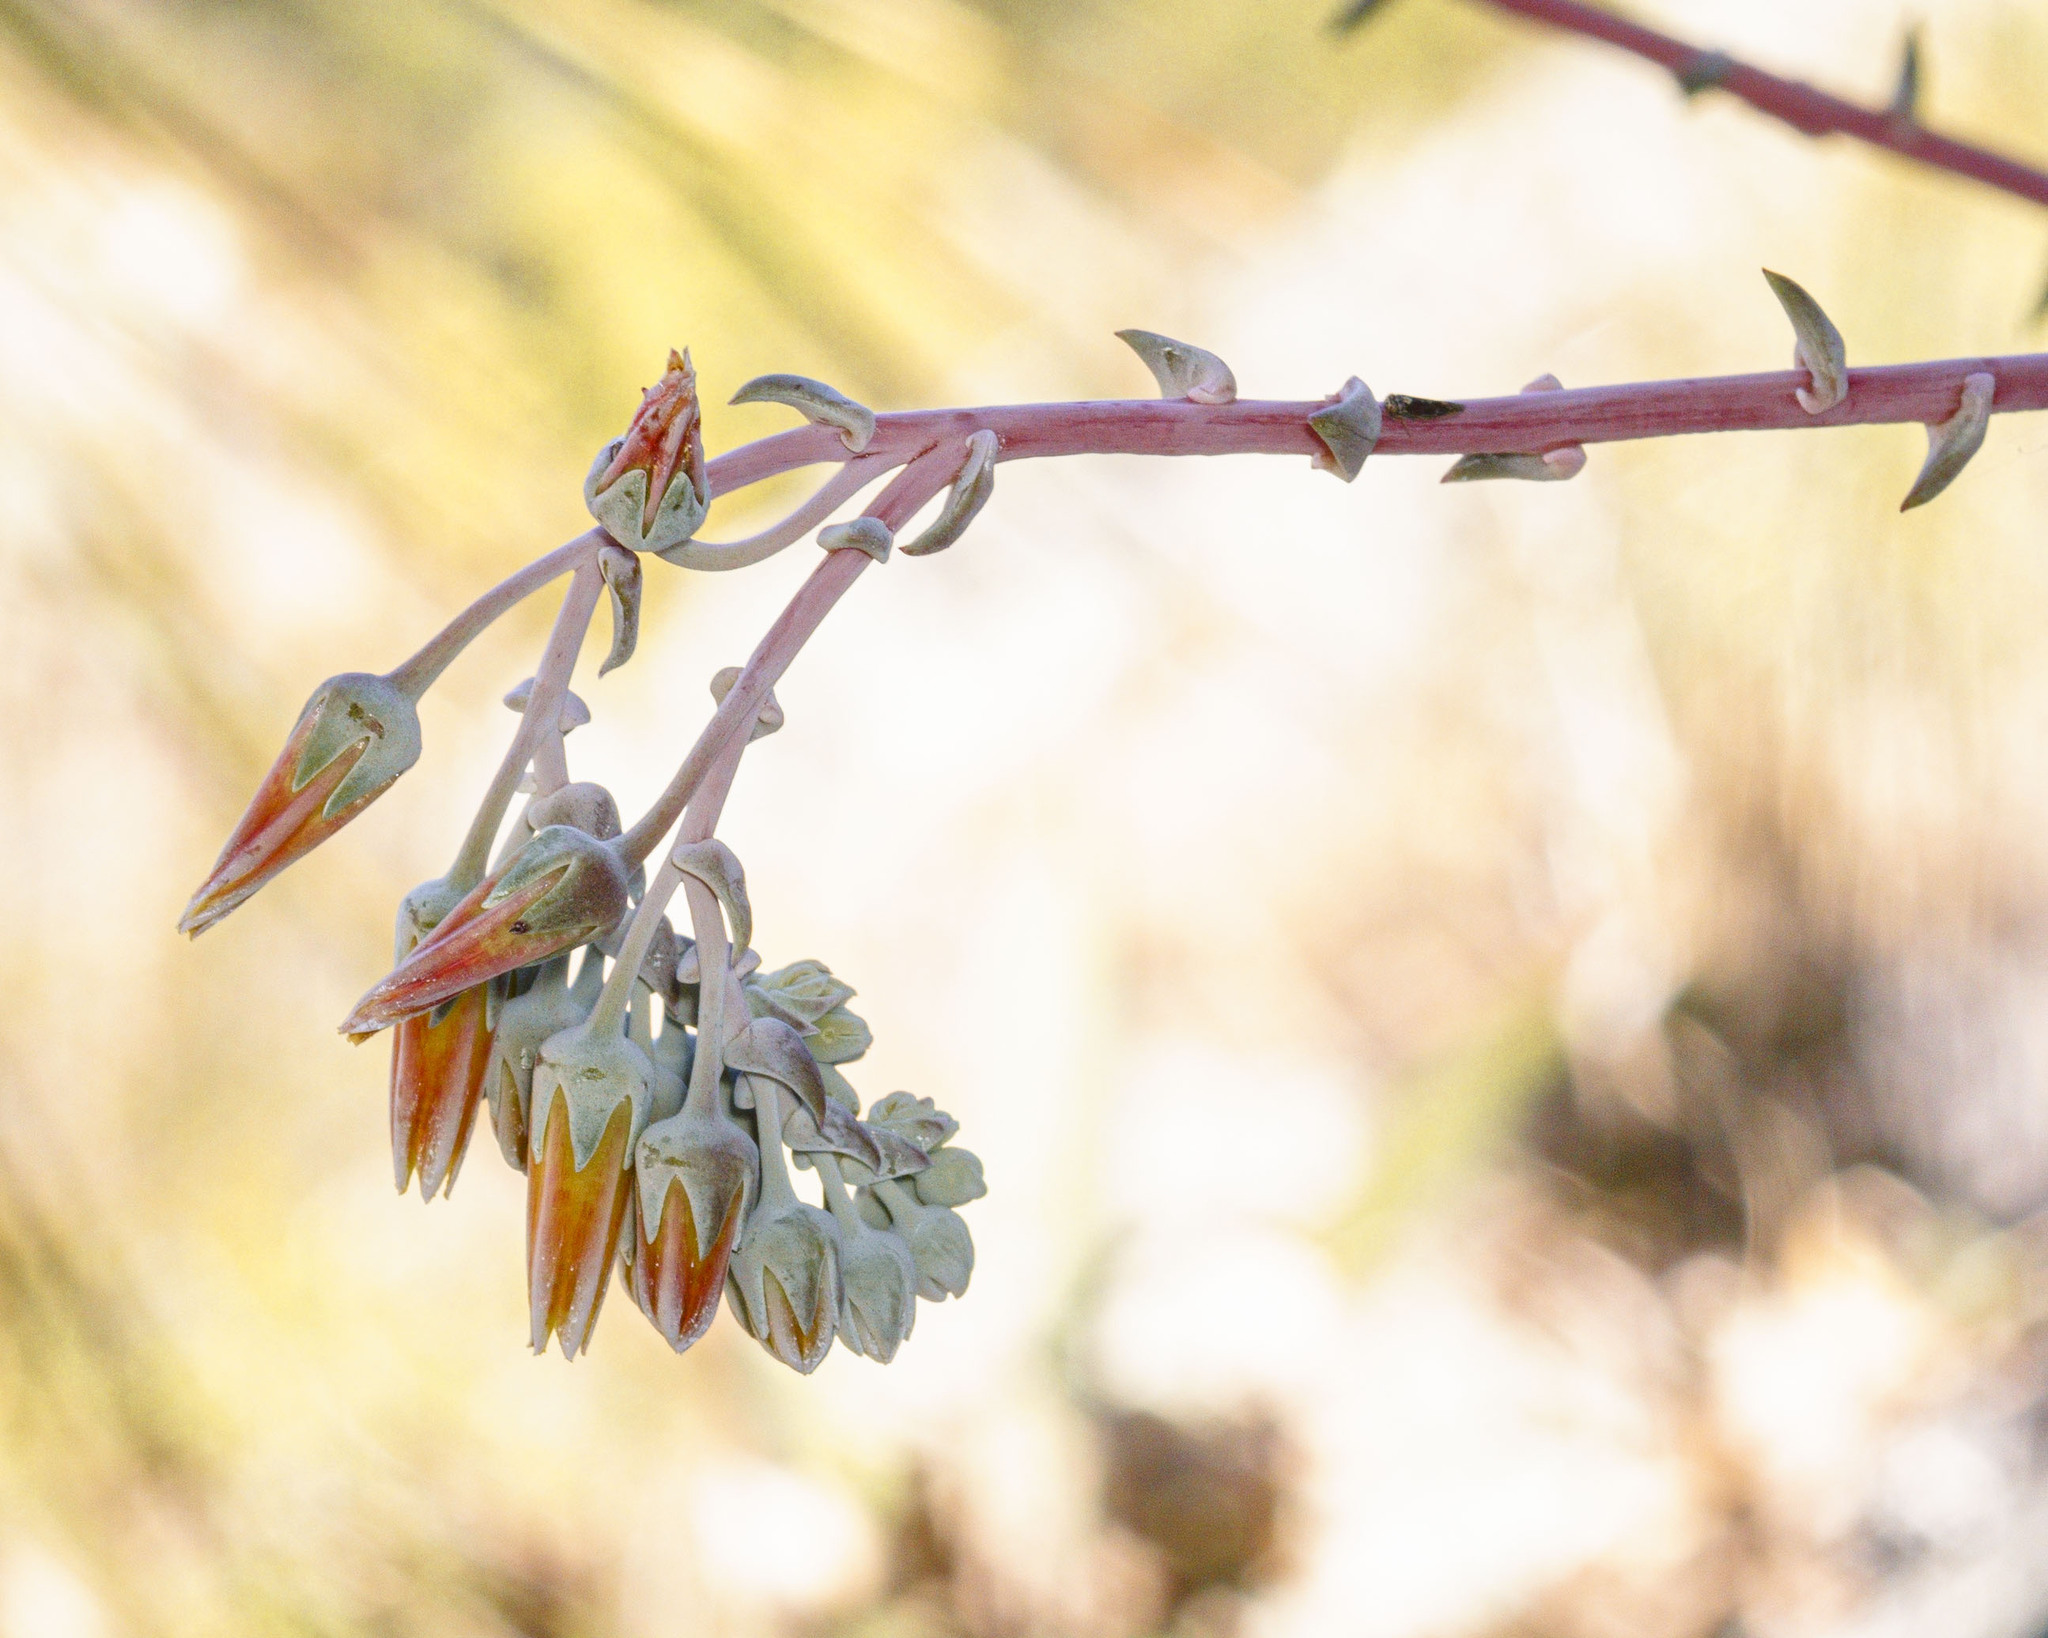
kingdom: Plantae
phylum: Tracheophyta
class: Magnoliopsida
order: Saxifragales
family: Crassulaceae
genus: Dudleya
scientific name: Dudleya rigida
